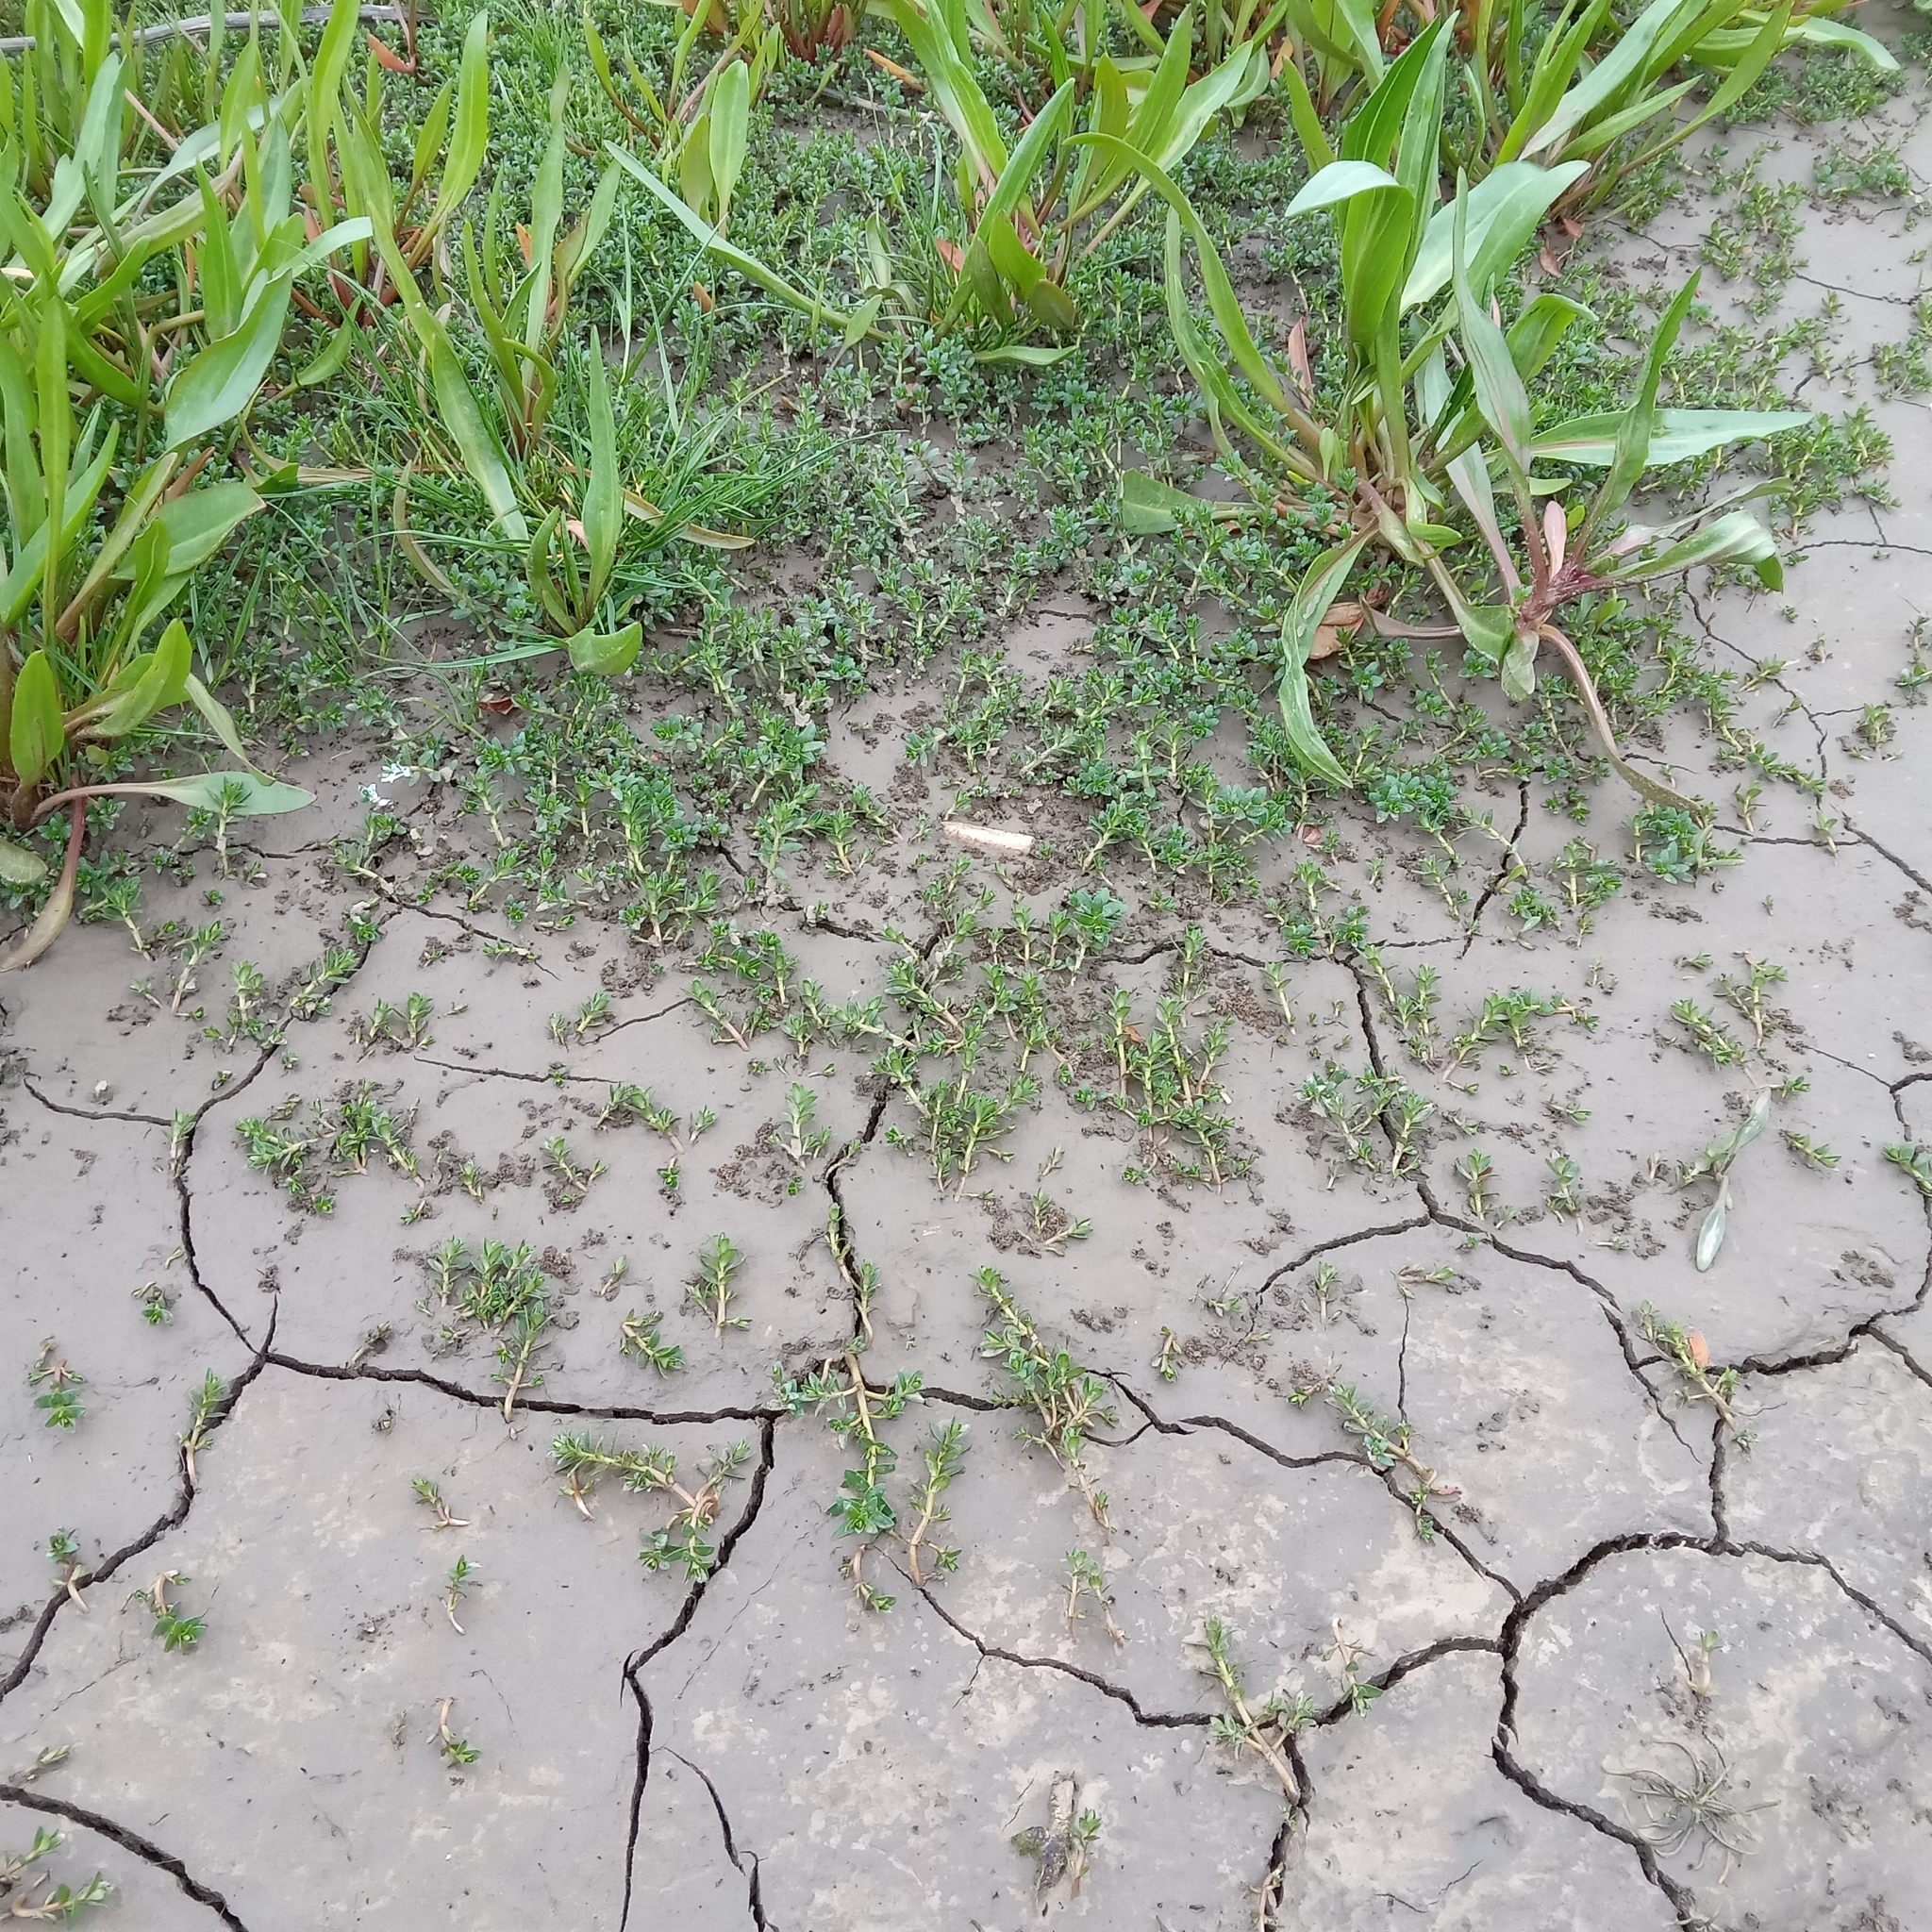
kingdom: Plantae
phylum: Tracheophyta
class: Magnoliopsida
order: Ericales
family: Primulaceae
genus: Lysimachia
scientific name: Lysimachia maritima
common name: Sea milkwort
